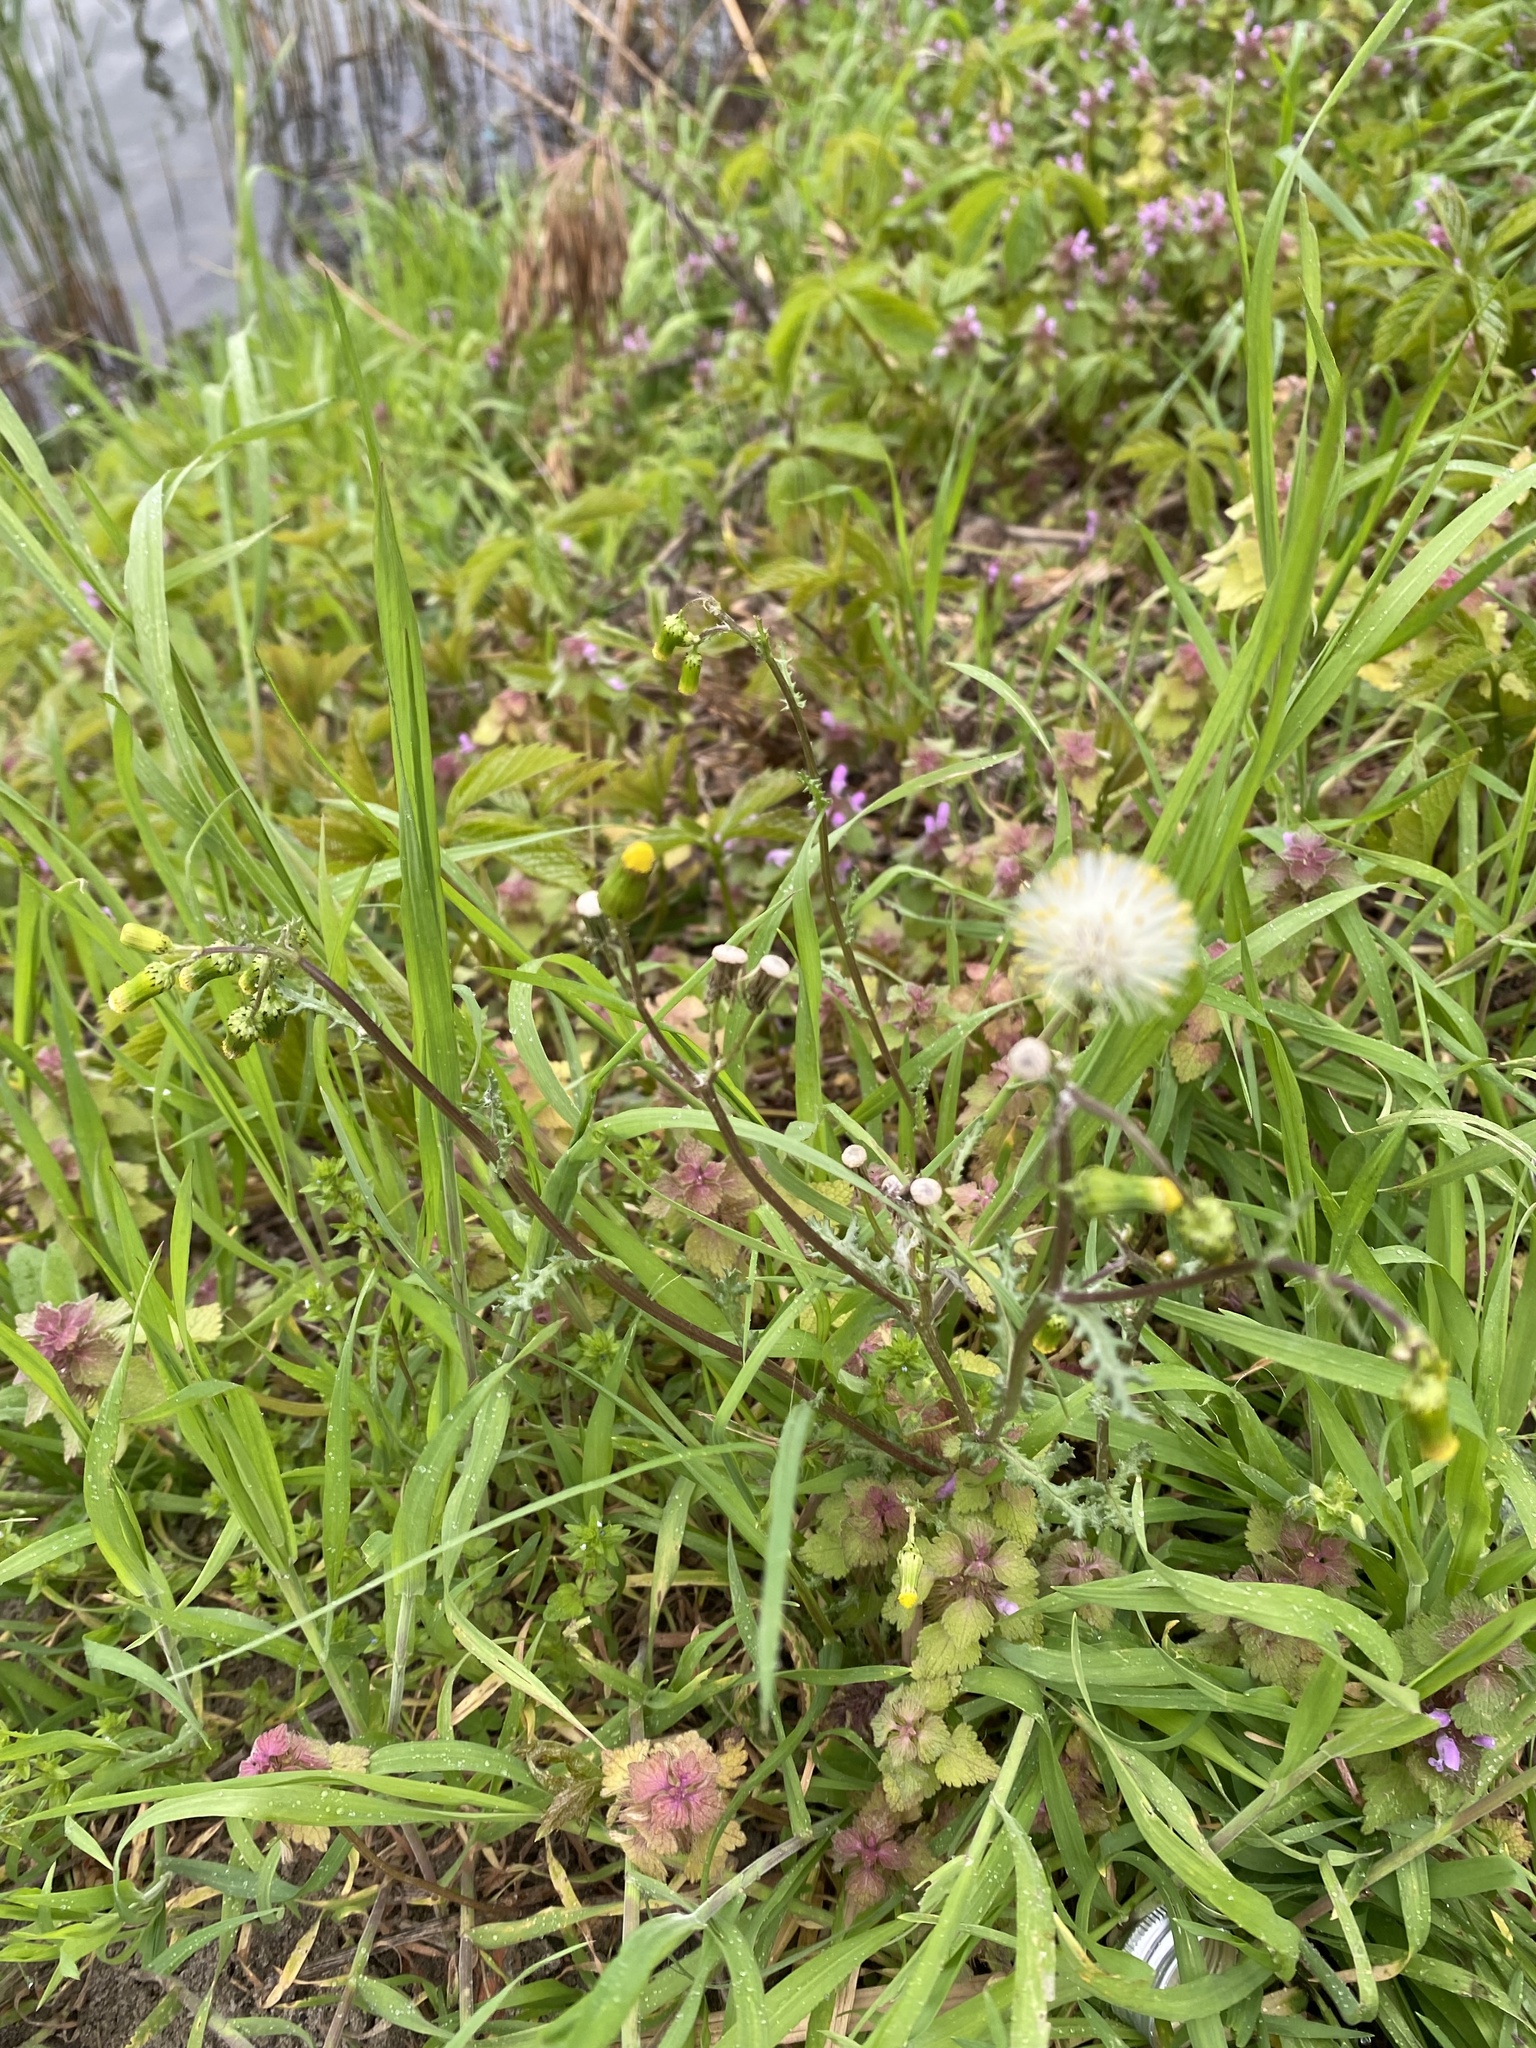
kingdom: Plantae
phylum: Tracheophyta
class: Magnoliopsida
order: Asterales
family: Asteraceae
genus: Senecio
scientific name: Senecio vulgaris
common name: Old-man-in-the-spring
